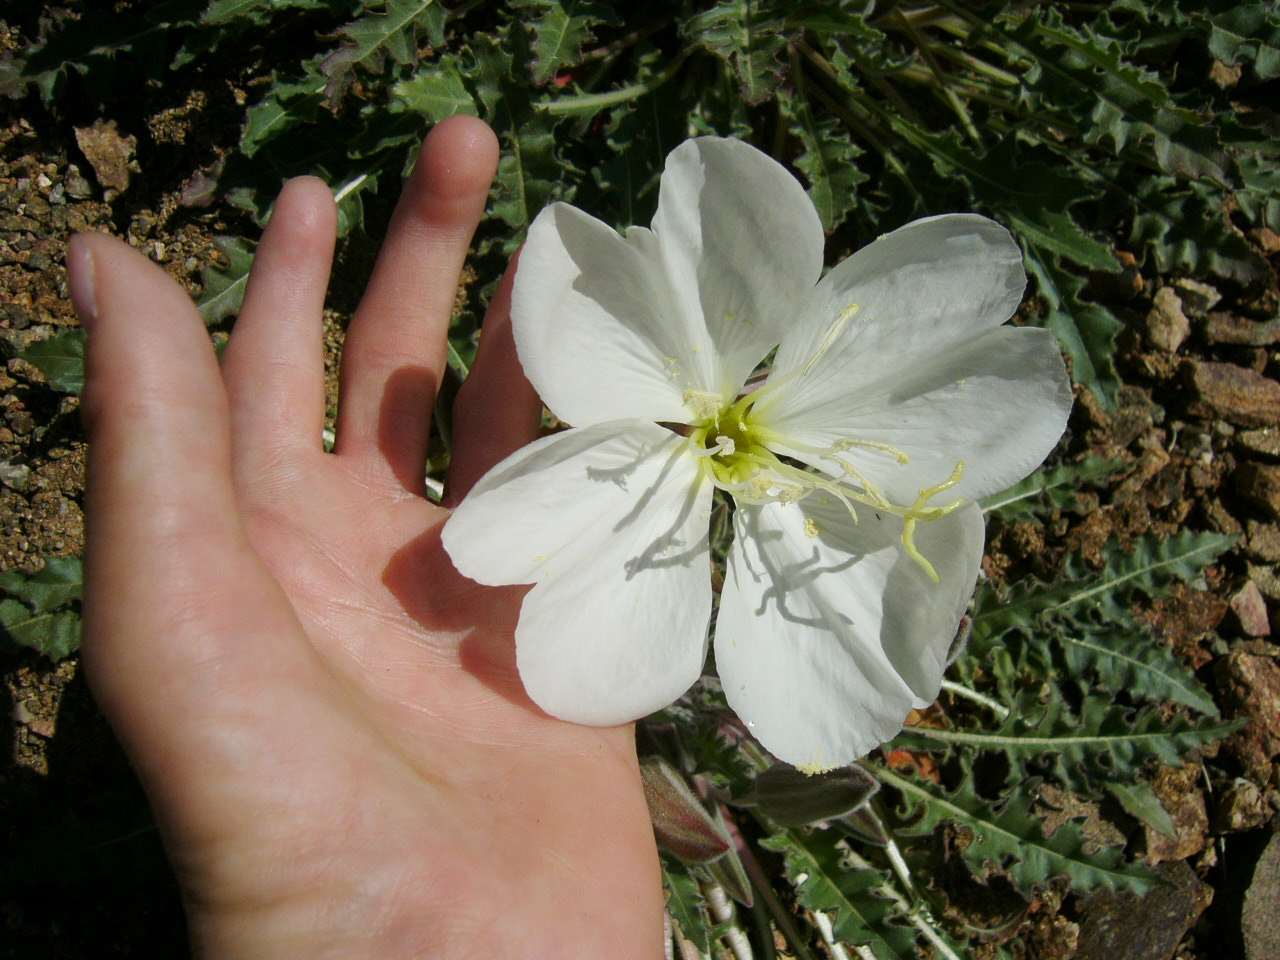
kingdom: Plantae
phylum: Tracheophyta
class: Magnoliopsida
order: Myrtales
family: Onagraceae
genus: Oenothera
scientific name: Oenothera cespitosa
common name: Tufted evening-primrose
